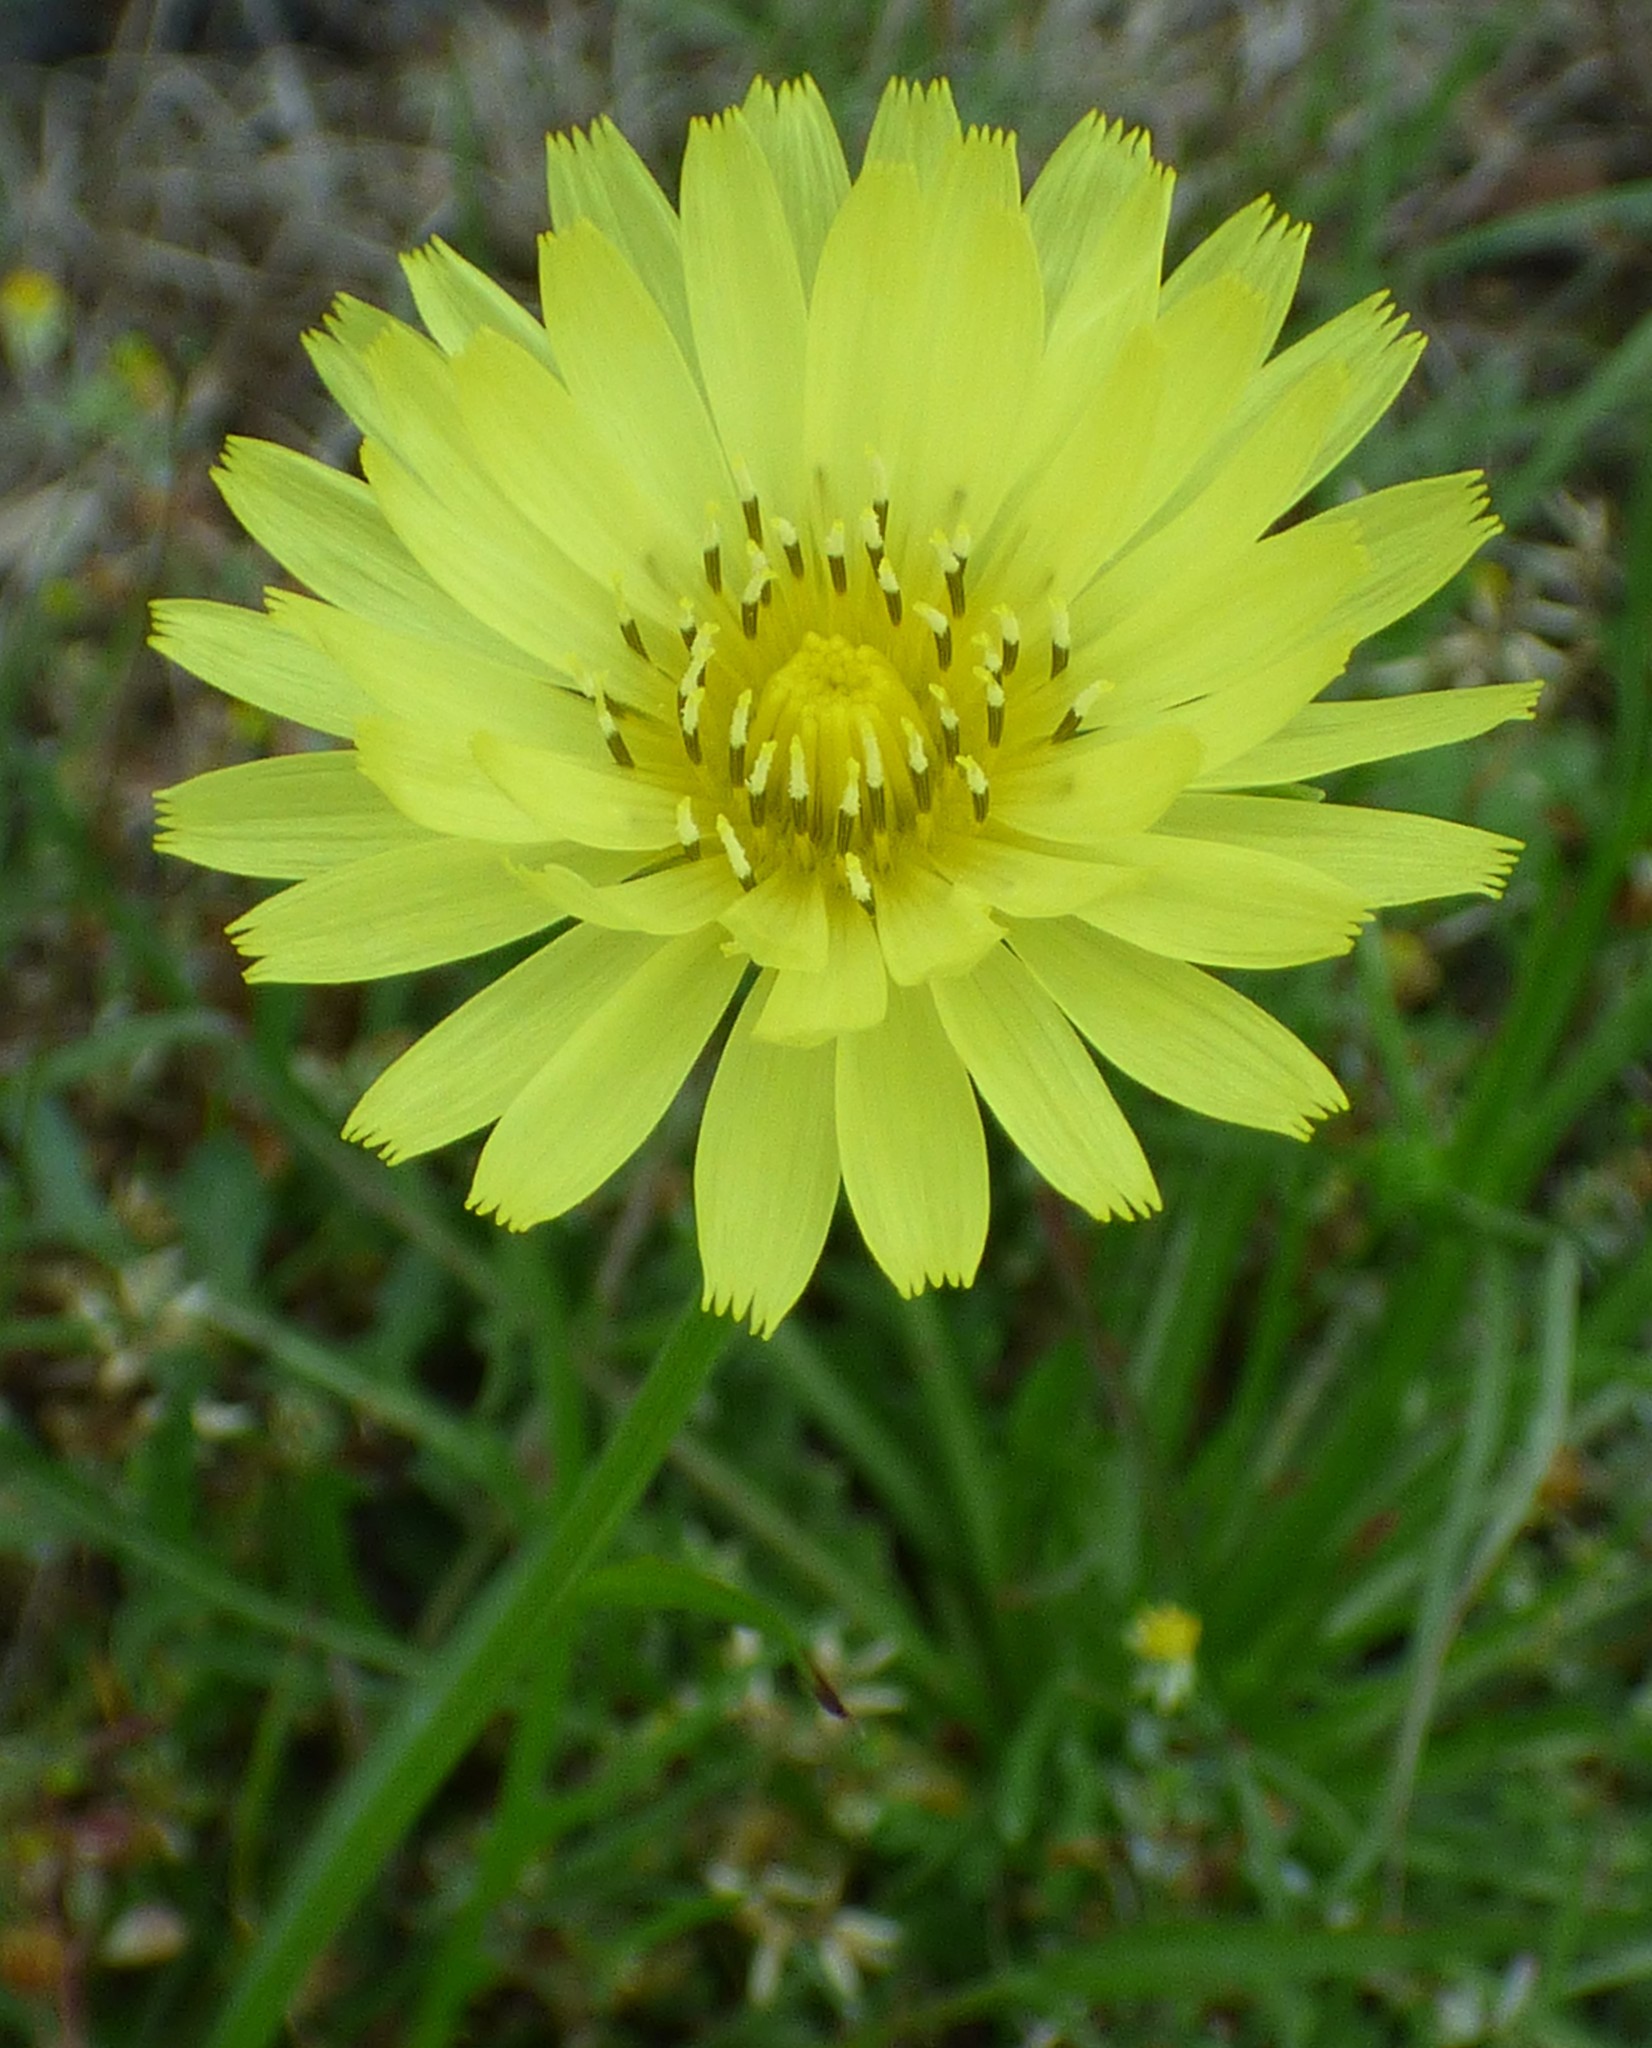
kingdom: Plantae
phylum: Tracheophyta
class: Magnoliopsida
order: Asterales
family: Asteraceae
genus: Pyrrhopappus
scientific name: Pyrrhopappus carolinianus
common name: Carolina desert-chicory
